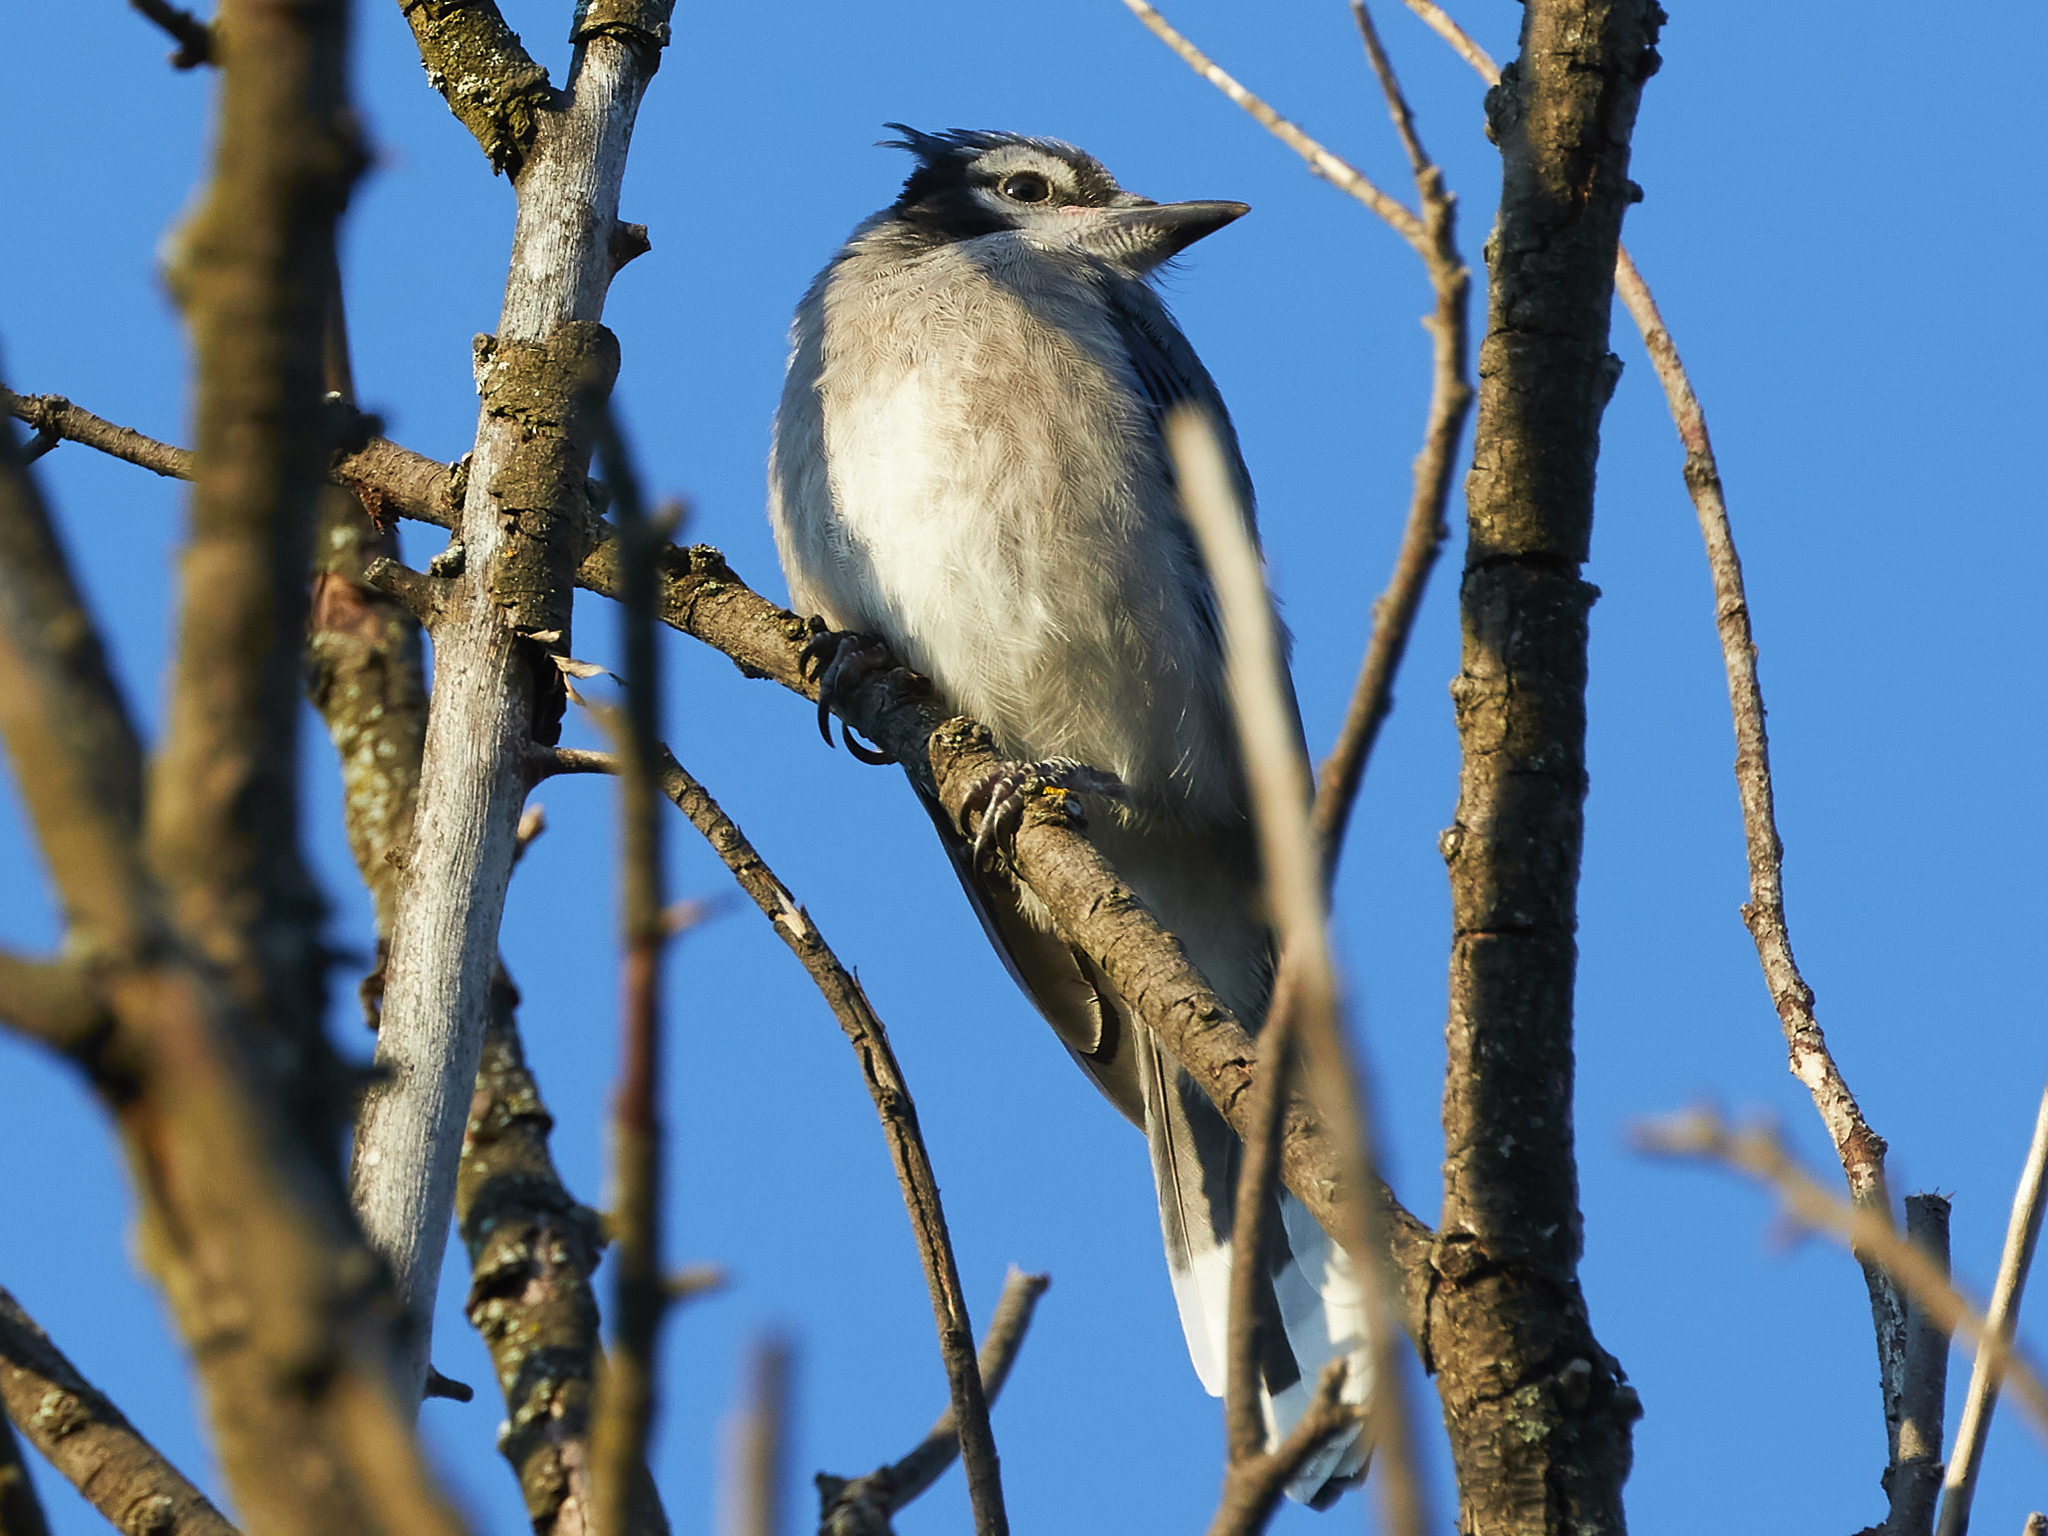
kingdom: Animalia
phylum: Chordata
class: Aves
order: Passeriformes
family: Corvidae
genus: Cyanocitta
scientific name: Cyanocitta cristata
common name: Blue jay
